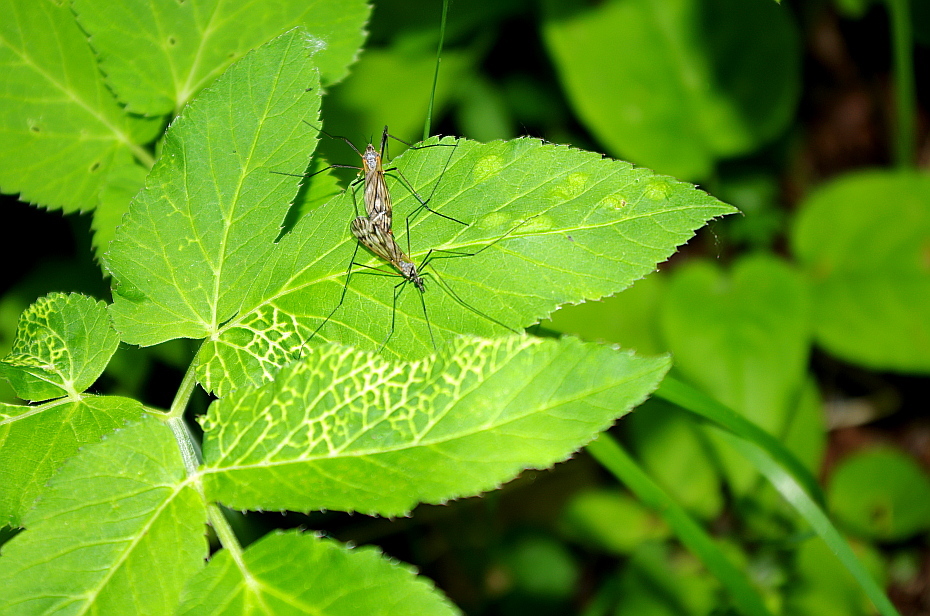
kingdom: Plantae
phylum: Tracheophyta
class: Magnoliopsida
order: Apiales
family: Apiaceae
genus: Aegopodium
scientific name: Aegopodium podagraria
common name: Ground-elder
